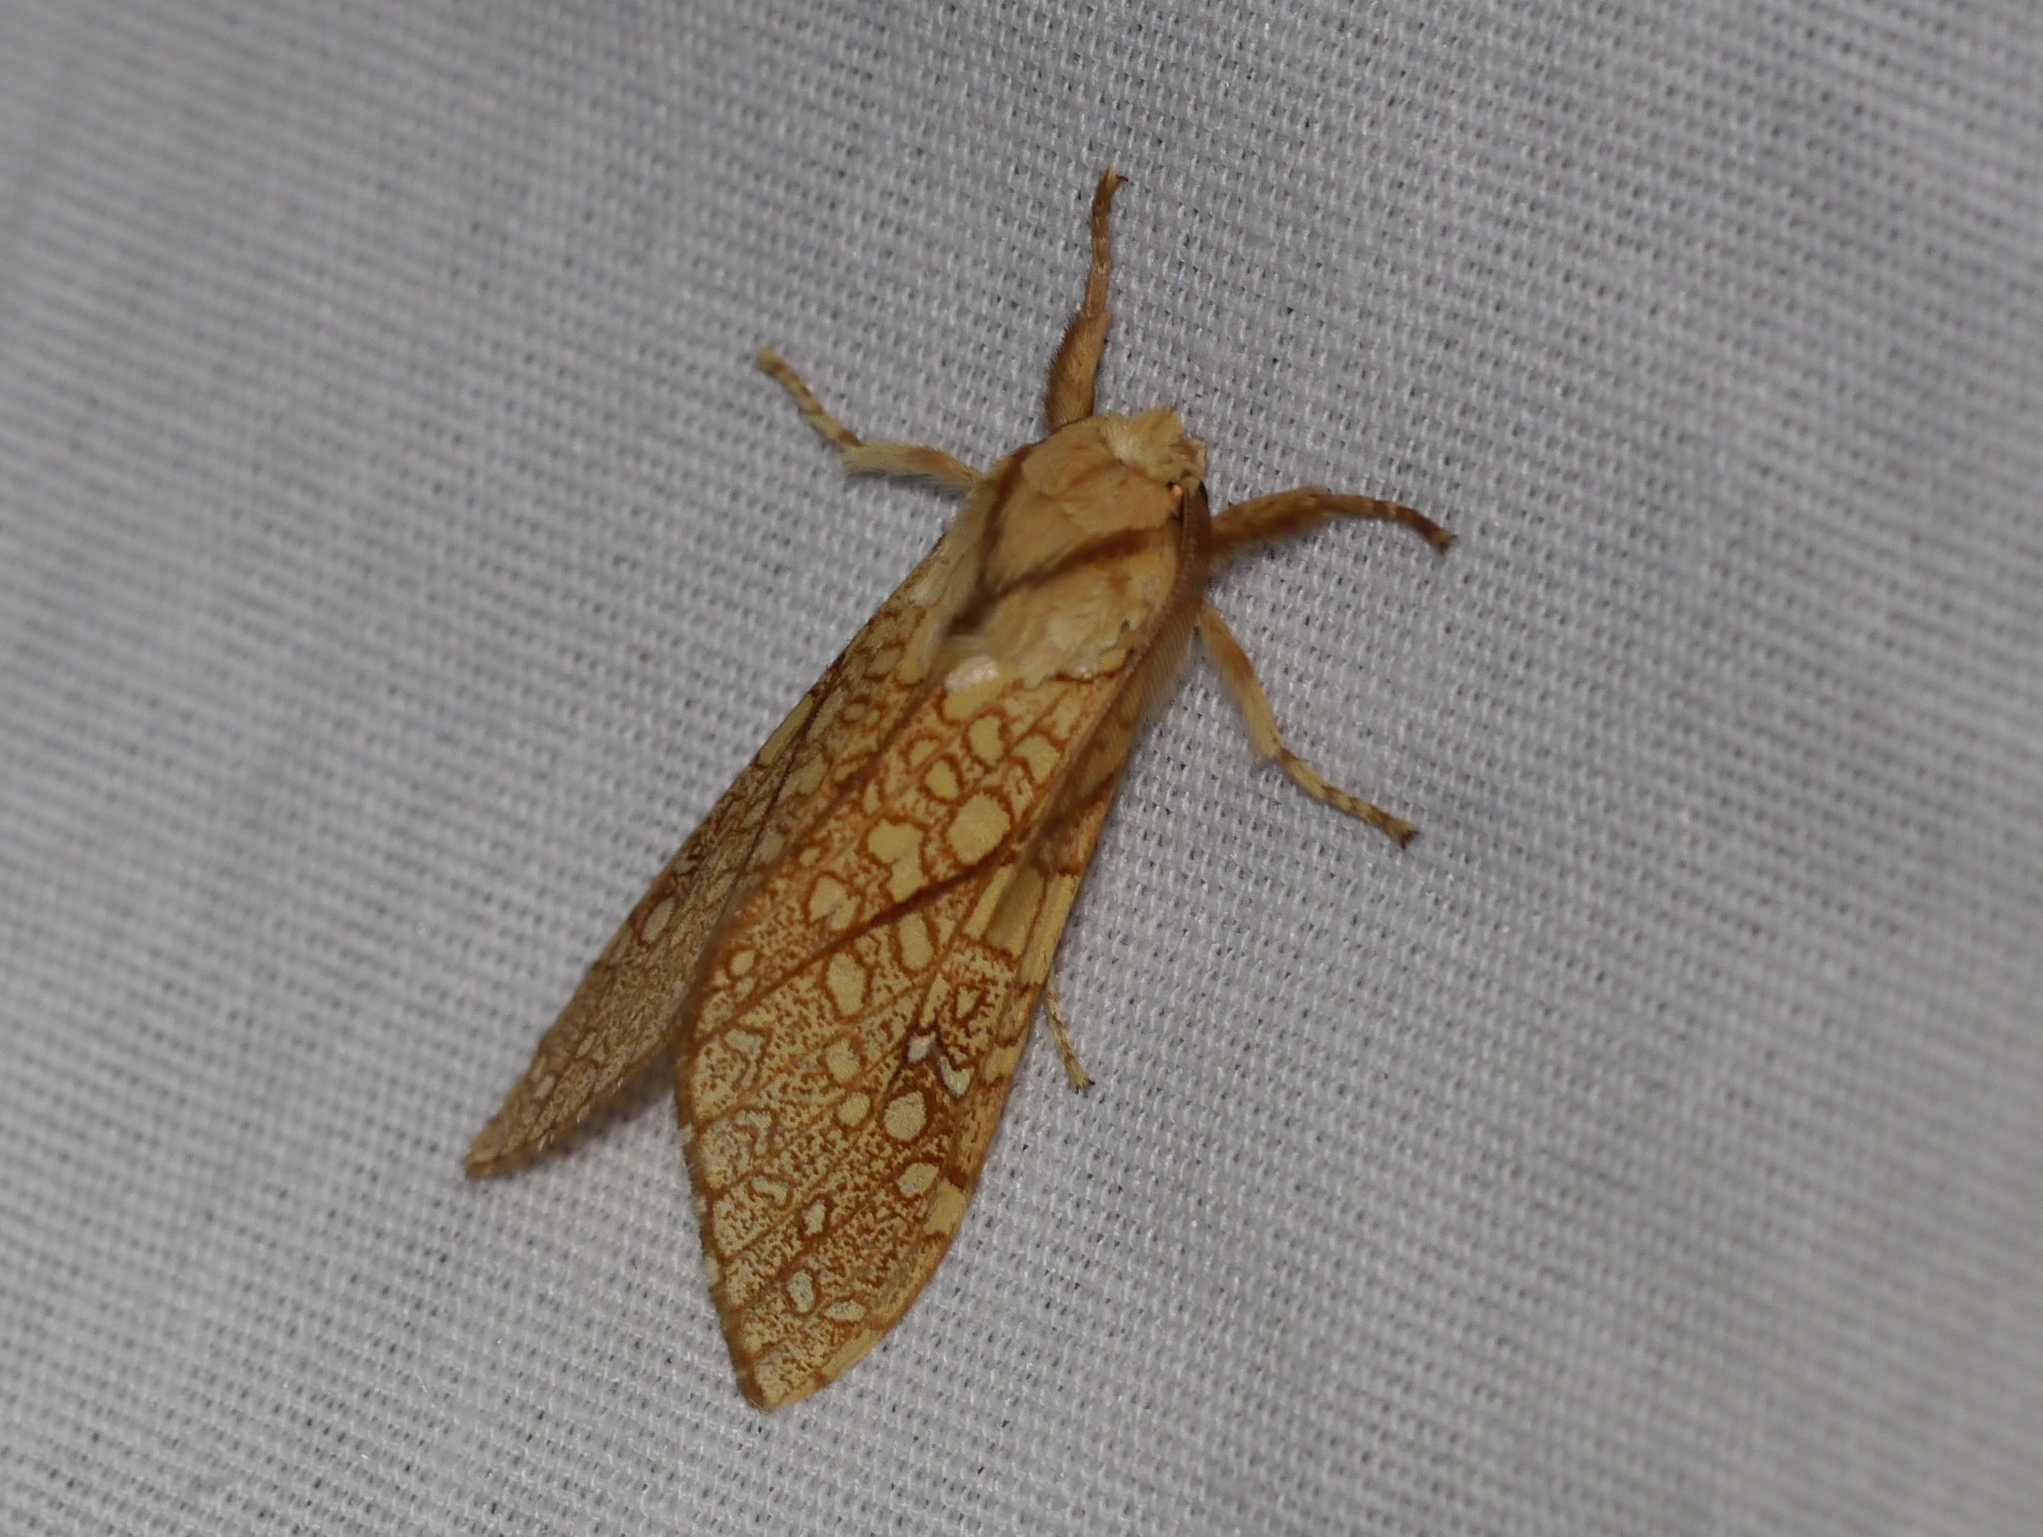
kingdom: Animalia
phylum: Arthropoda
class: Insecta
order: Lepidoptera
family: Erebidae
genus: Lophocampa
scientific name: Lophocampa mixta
